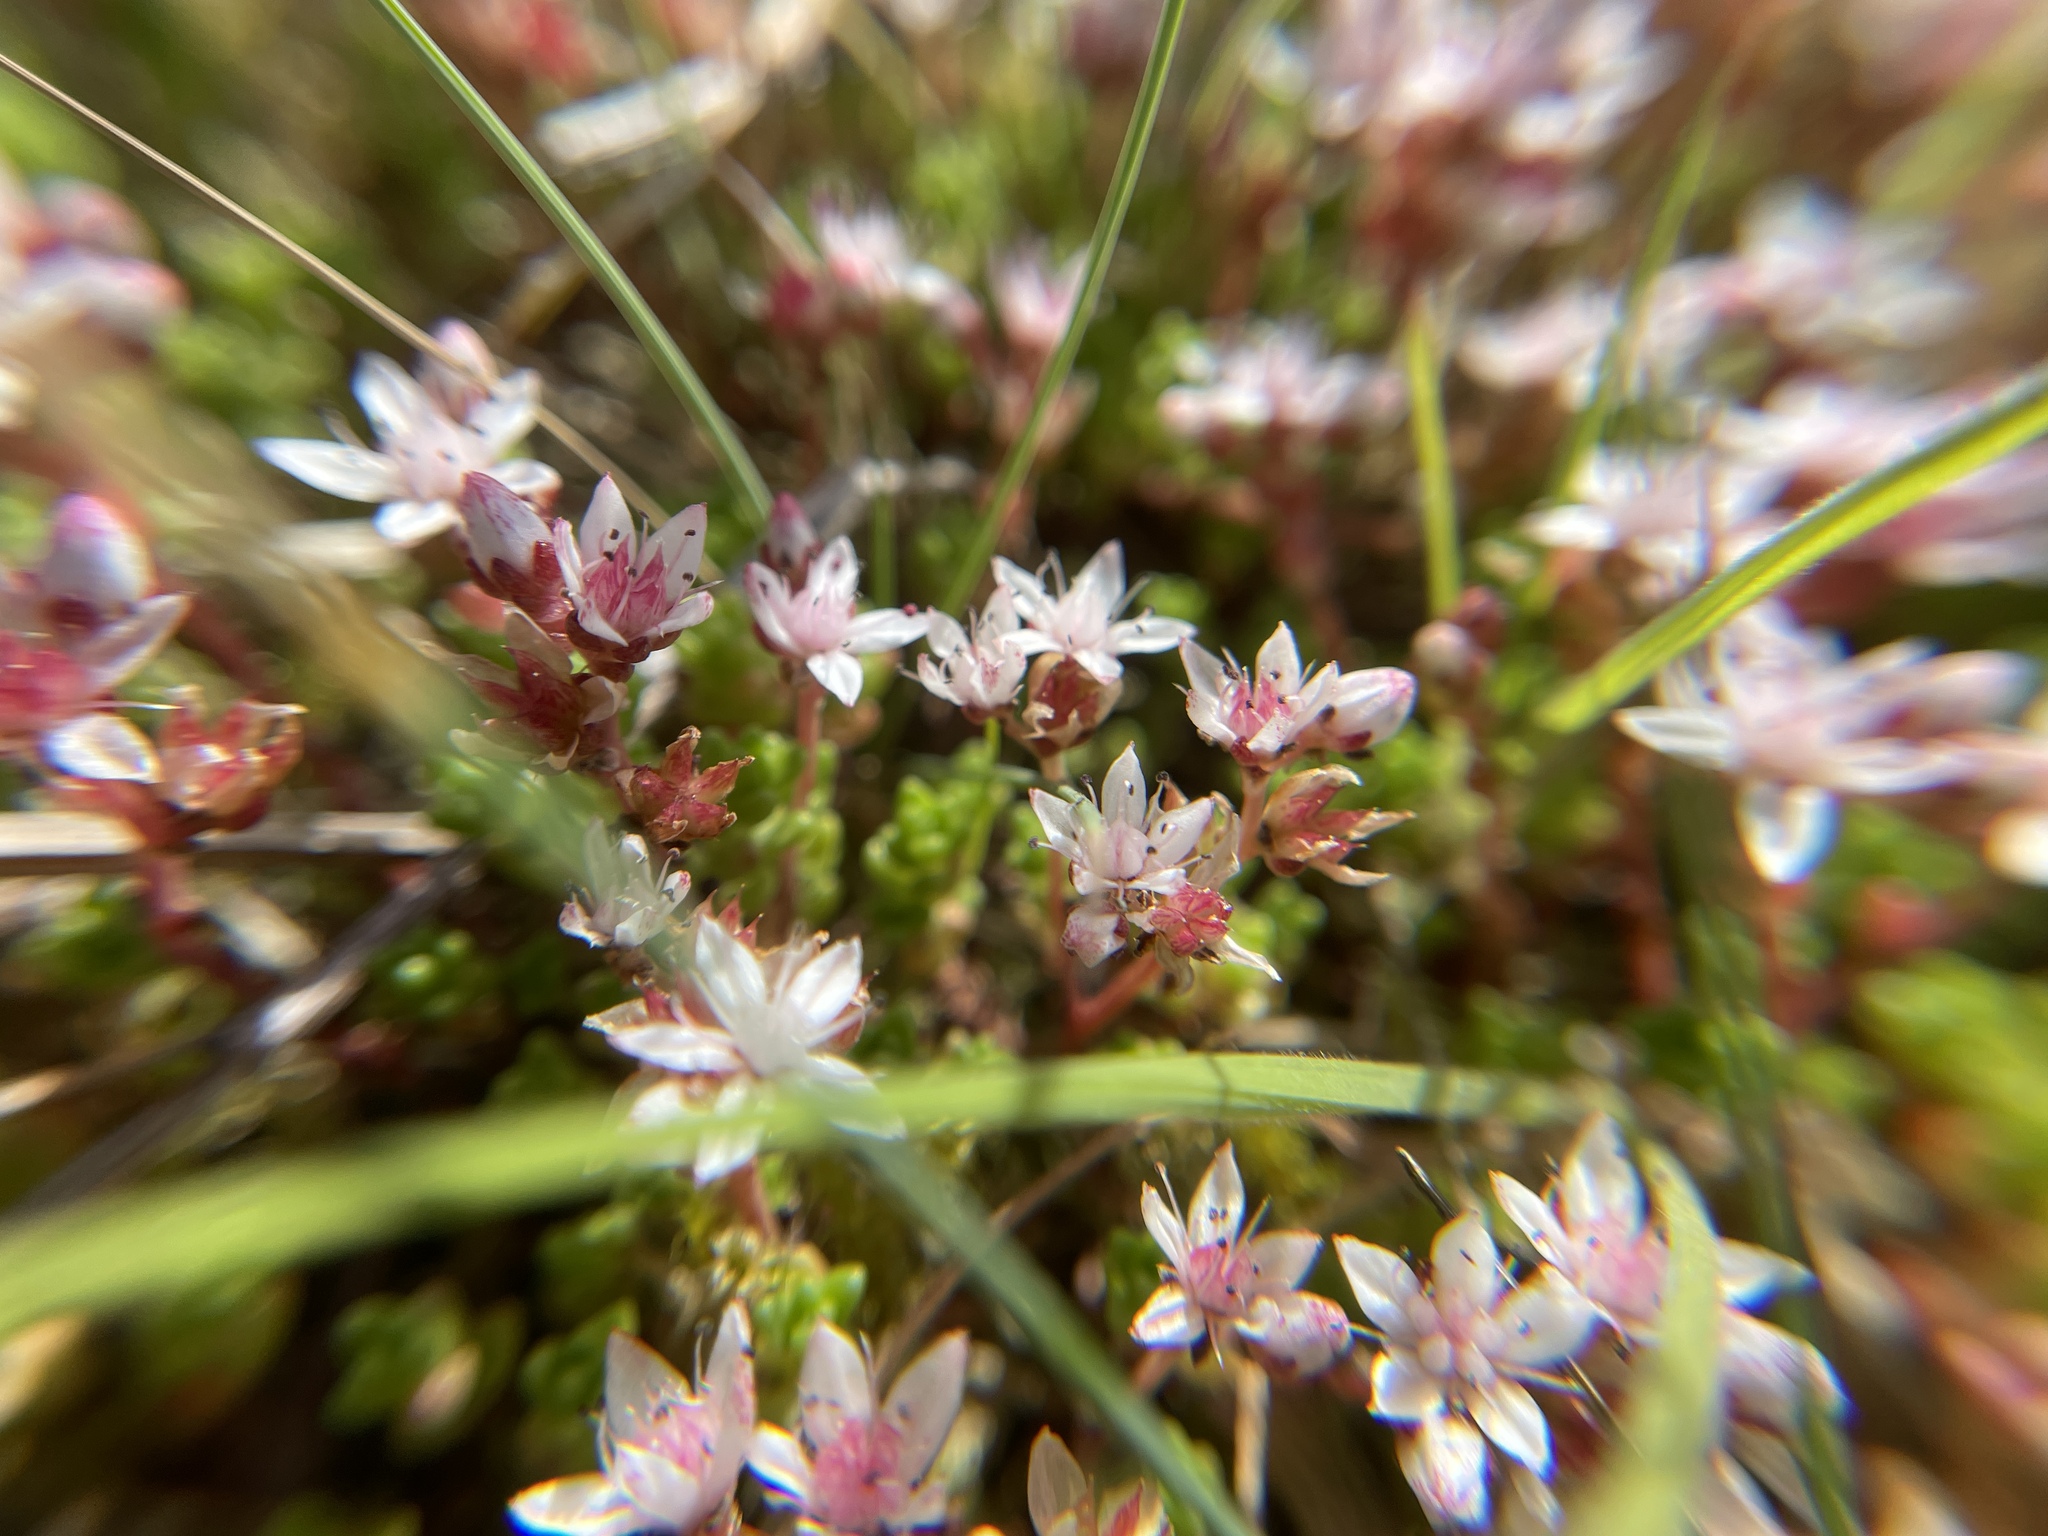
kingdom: Plantae
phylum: Tracheophyta
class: Magnoliopsida
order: Saxifragales
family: Crassulaceae
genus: Sedum
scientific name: Sedum anglicum
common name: English stonecrop
